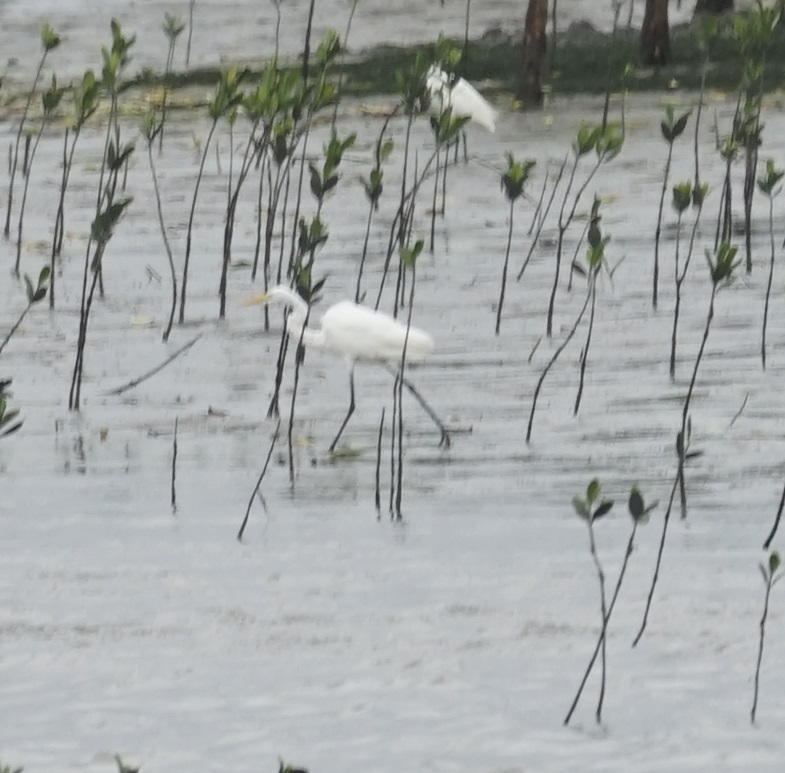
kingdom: Animalia
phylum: Chordata
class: Aves
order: Pelecaniformes
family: Ardeidae
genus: Ardea
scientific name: Ardea alba
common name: Great egret
